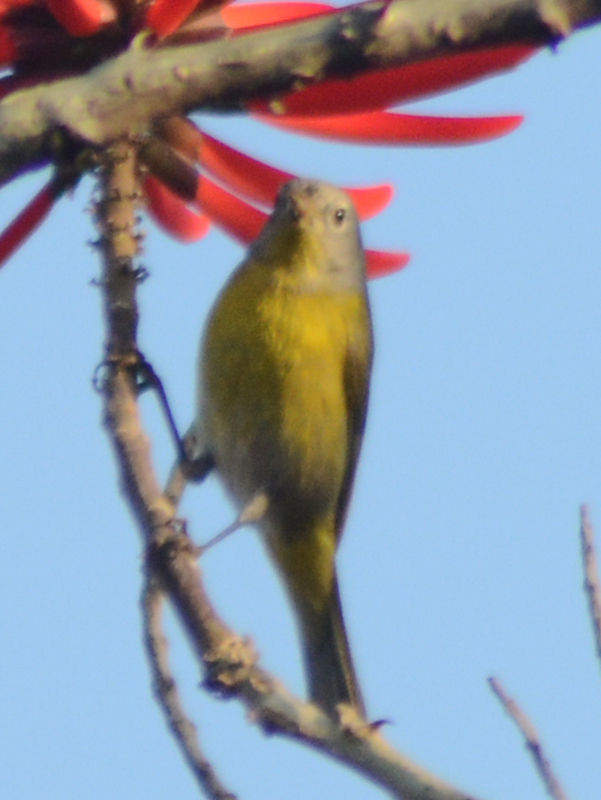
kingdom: Animalia
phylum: Chordata
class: Aves
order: Passeriformes
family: Parulidae
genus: Leiothlypis
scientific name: Leiothlypis ruficapilla
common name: Nashville warbler
